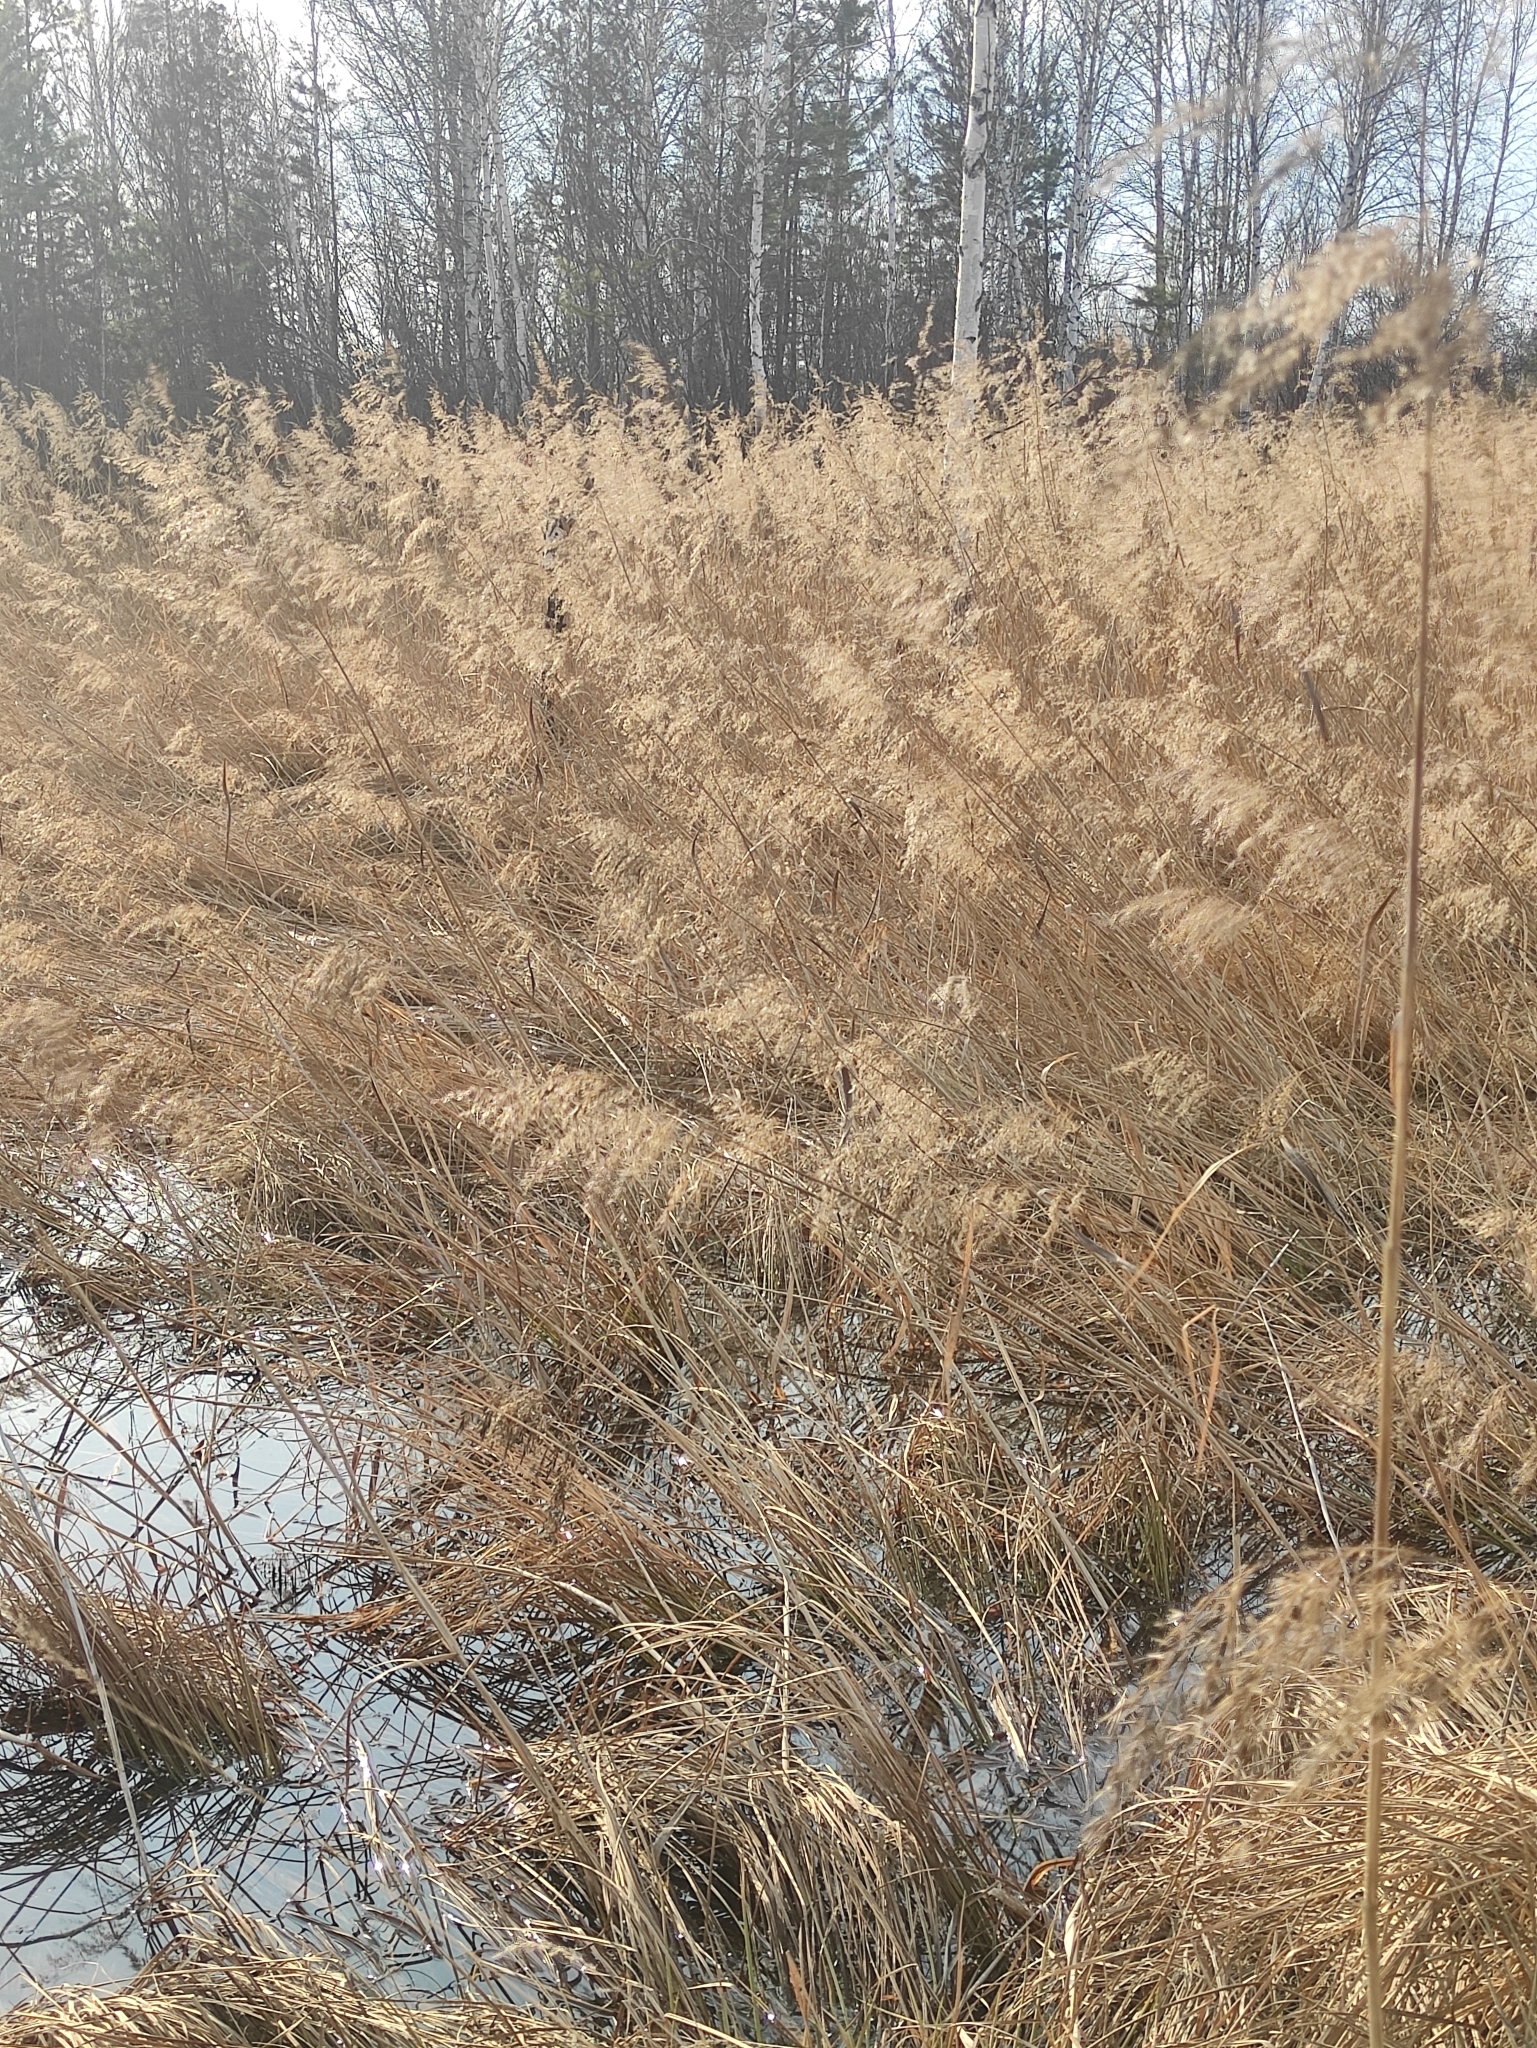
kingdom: Plantae
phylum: Tracheophyta
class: Liliopsida
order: Poales
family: Poaceae
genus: Phragmites
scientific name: Phragmites australis
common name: Common reed
